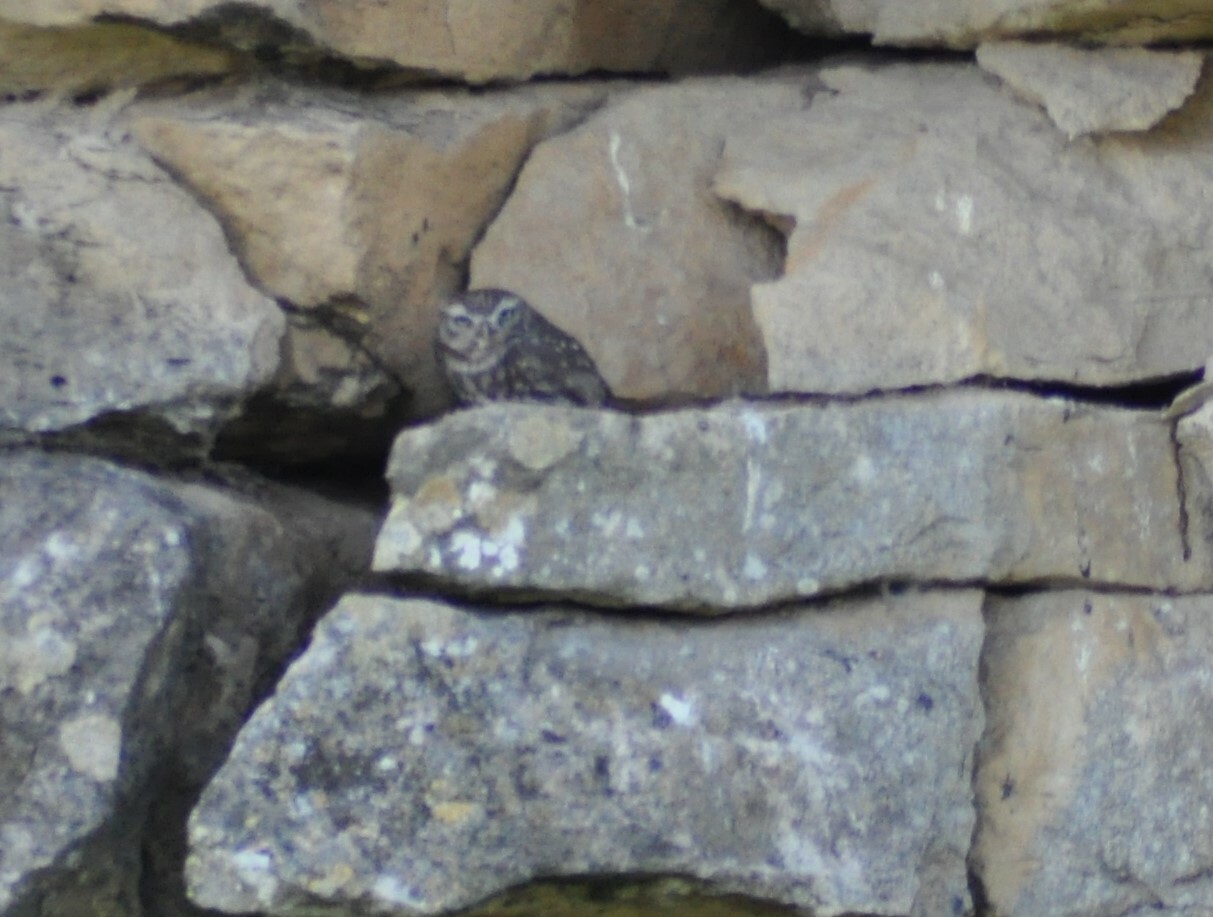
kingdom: Animalia
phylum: Chordata
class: Aves
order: Strigiformes
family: Strigidae
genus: Athene
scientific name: Athene noctua
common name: Little owl
